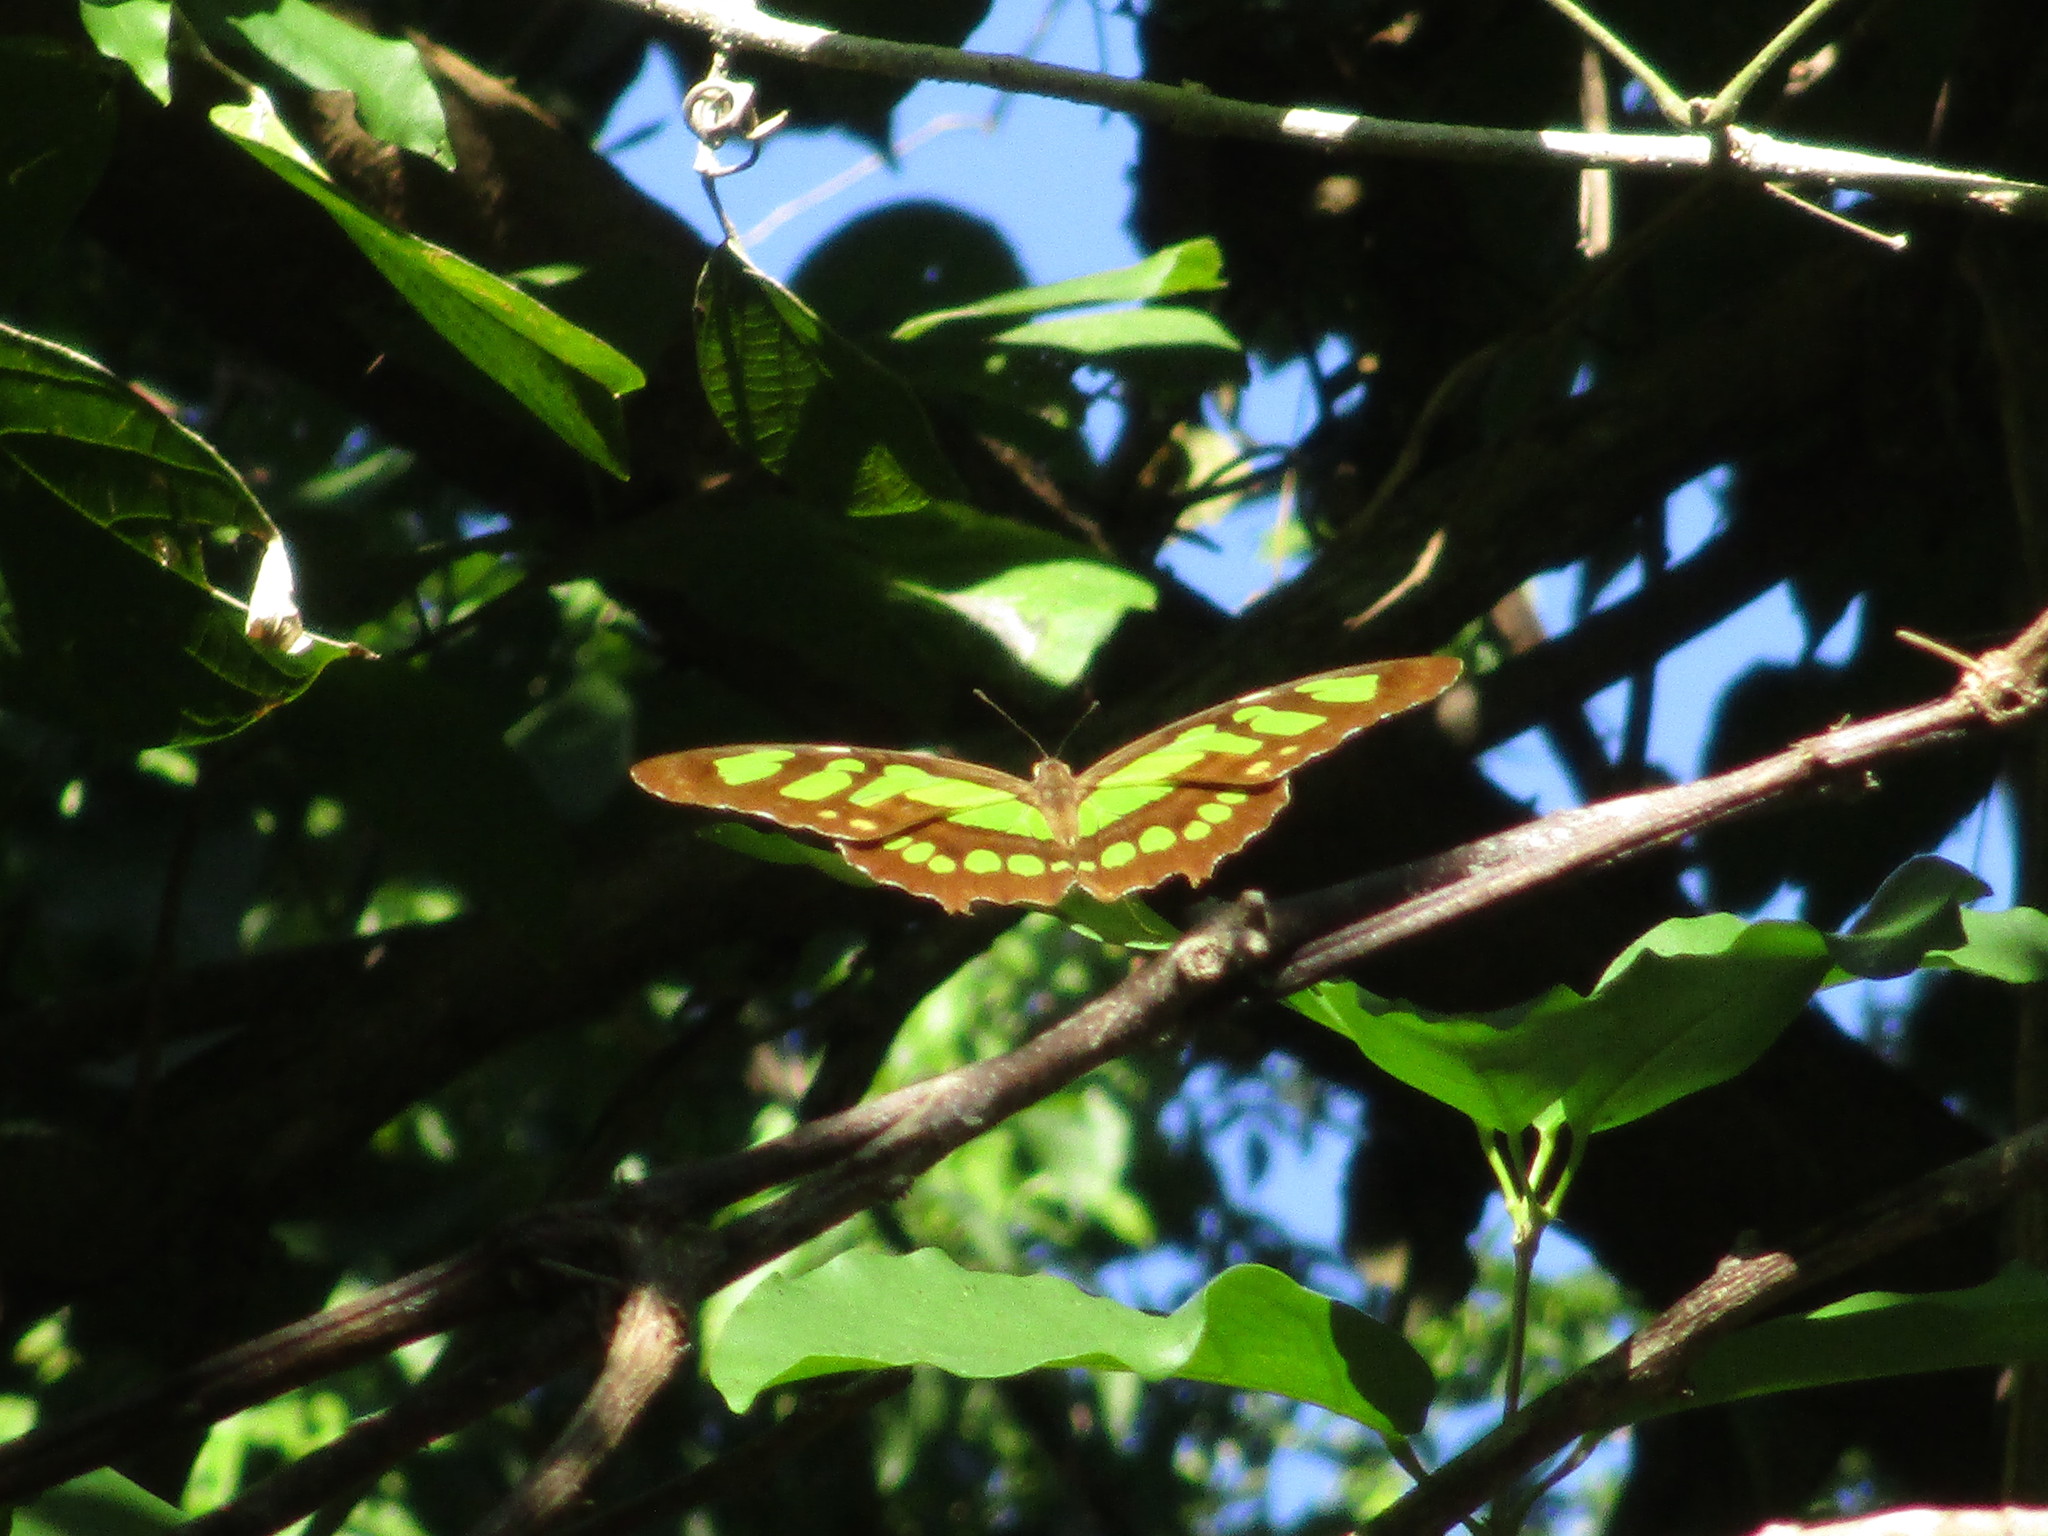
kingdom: Animalia
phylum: Arthropoda
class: Insecta
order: Lepidoptera
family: Nymphalidae
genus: Siproeta
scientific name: Siproeta stelenes
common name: Malachite
